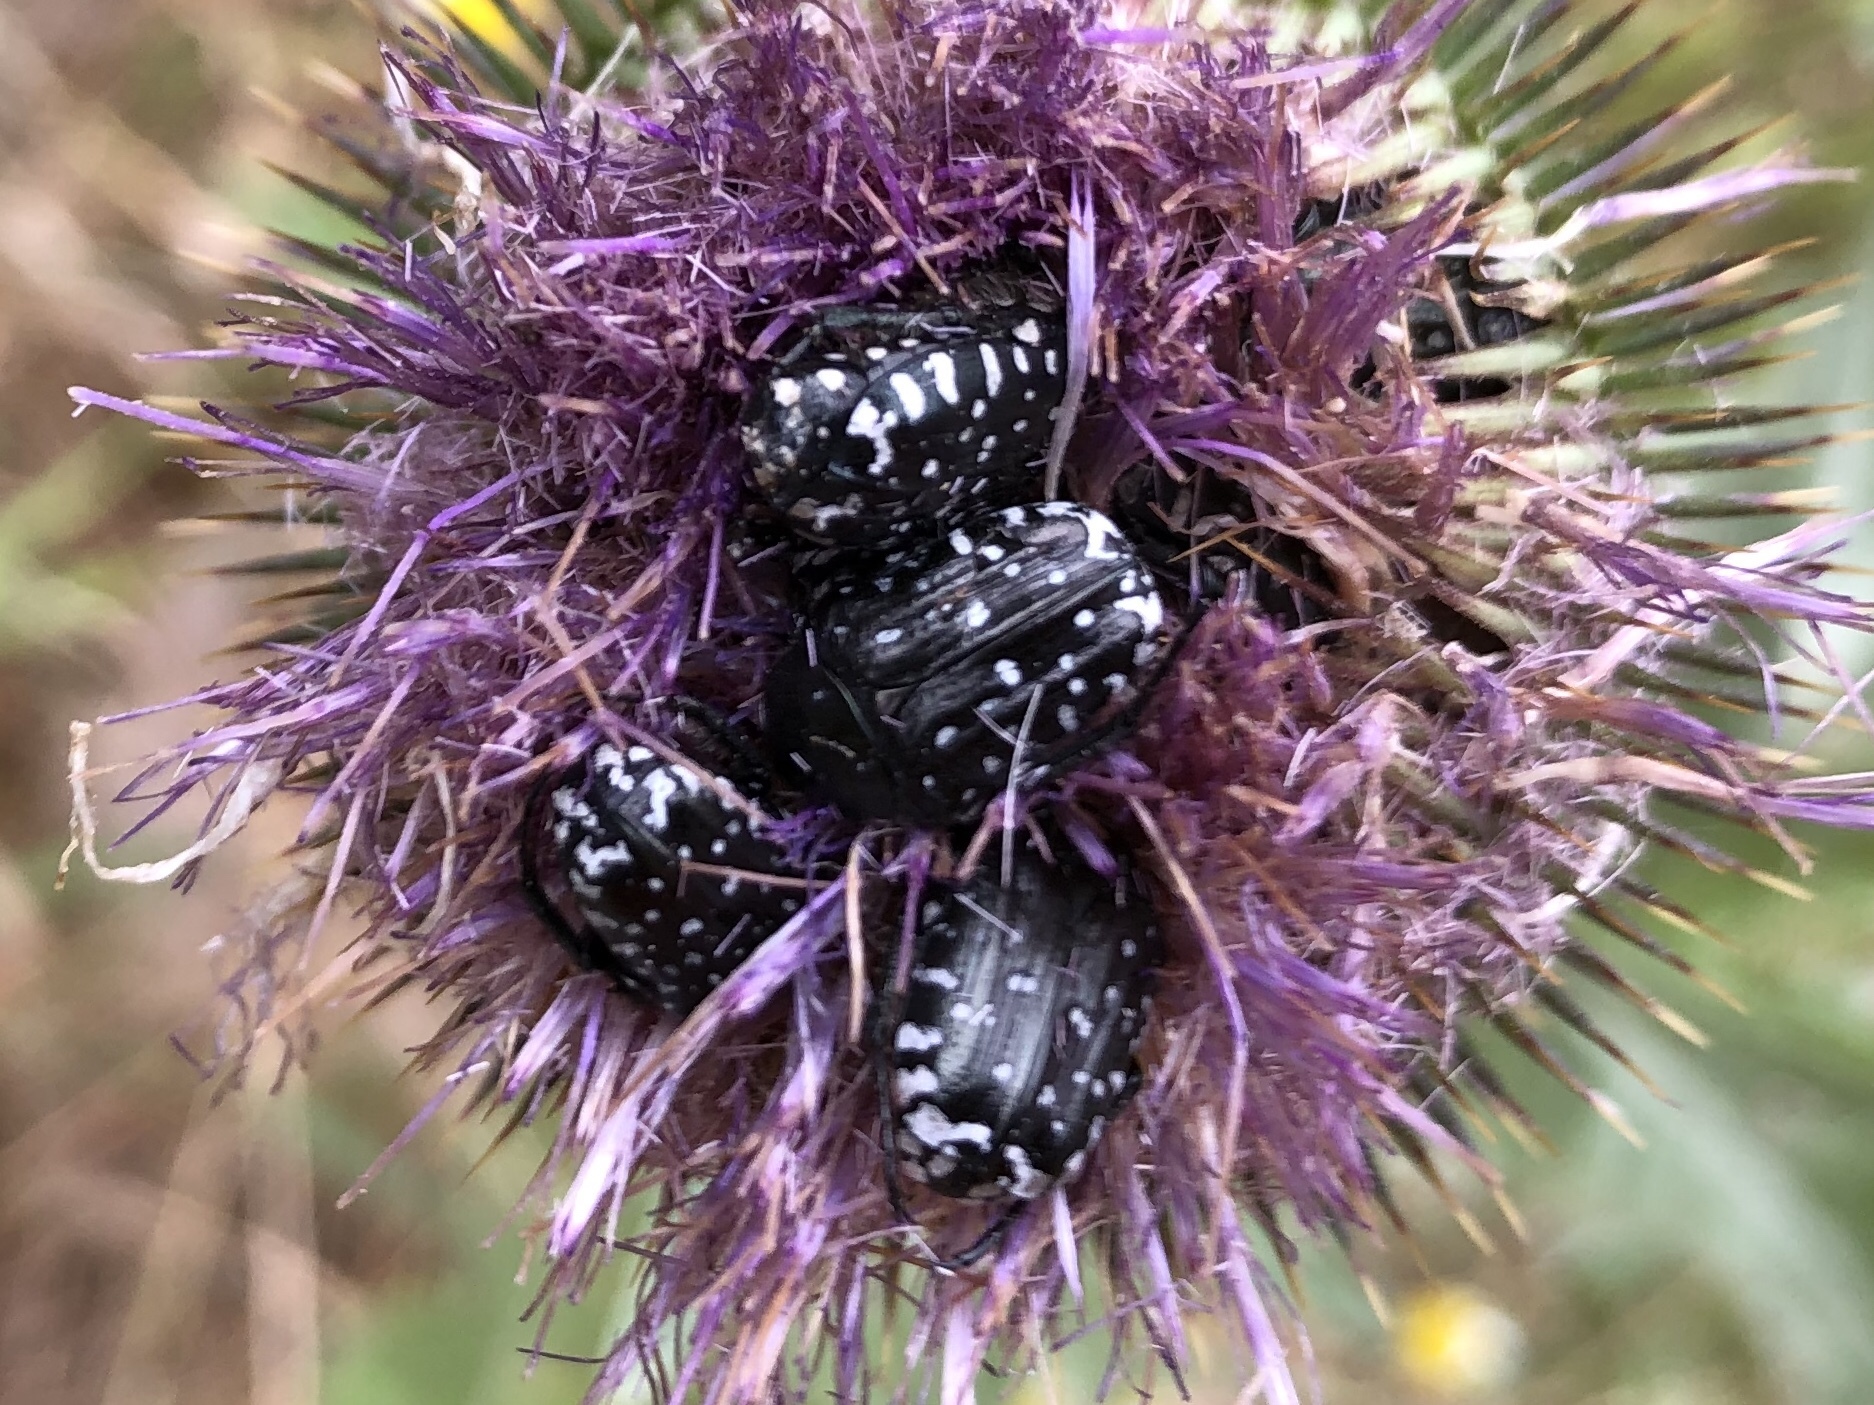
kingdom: Animalia
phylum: Arthropoda
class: Insecta
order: Coleoptera
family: Scarabaeidae
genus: Oxythyrea
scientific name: Oxythyrea funesta
